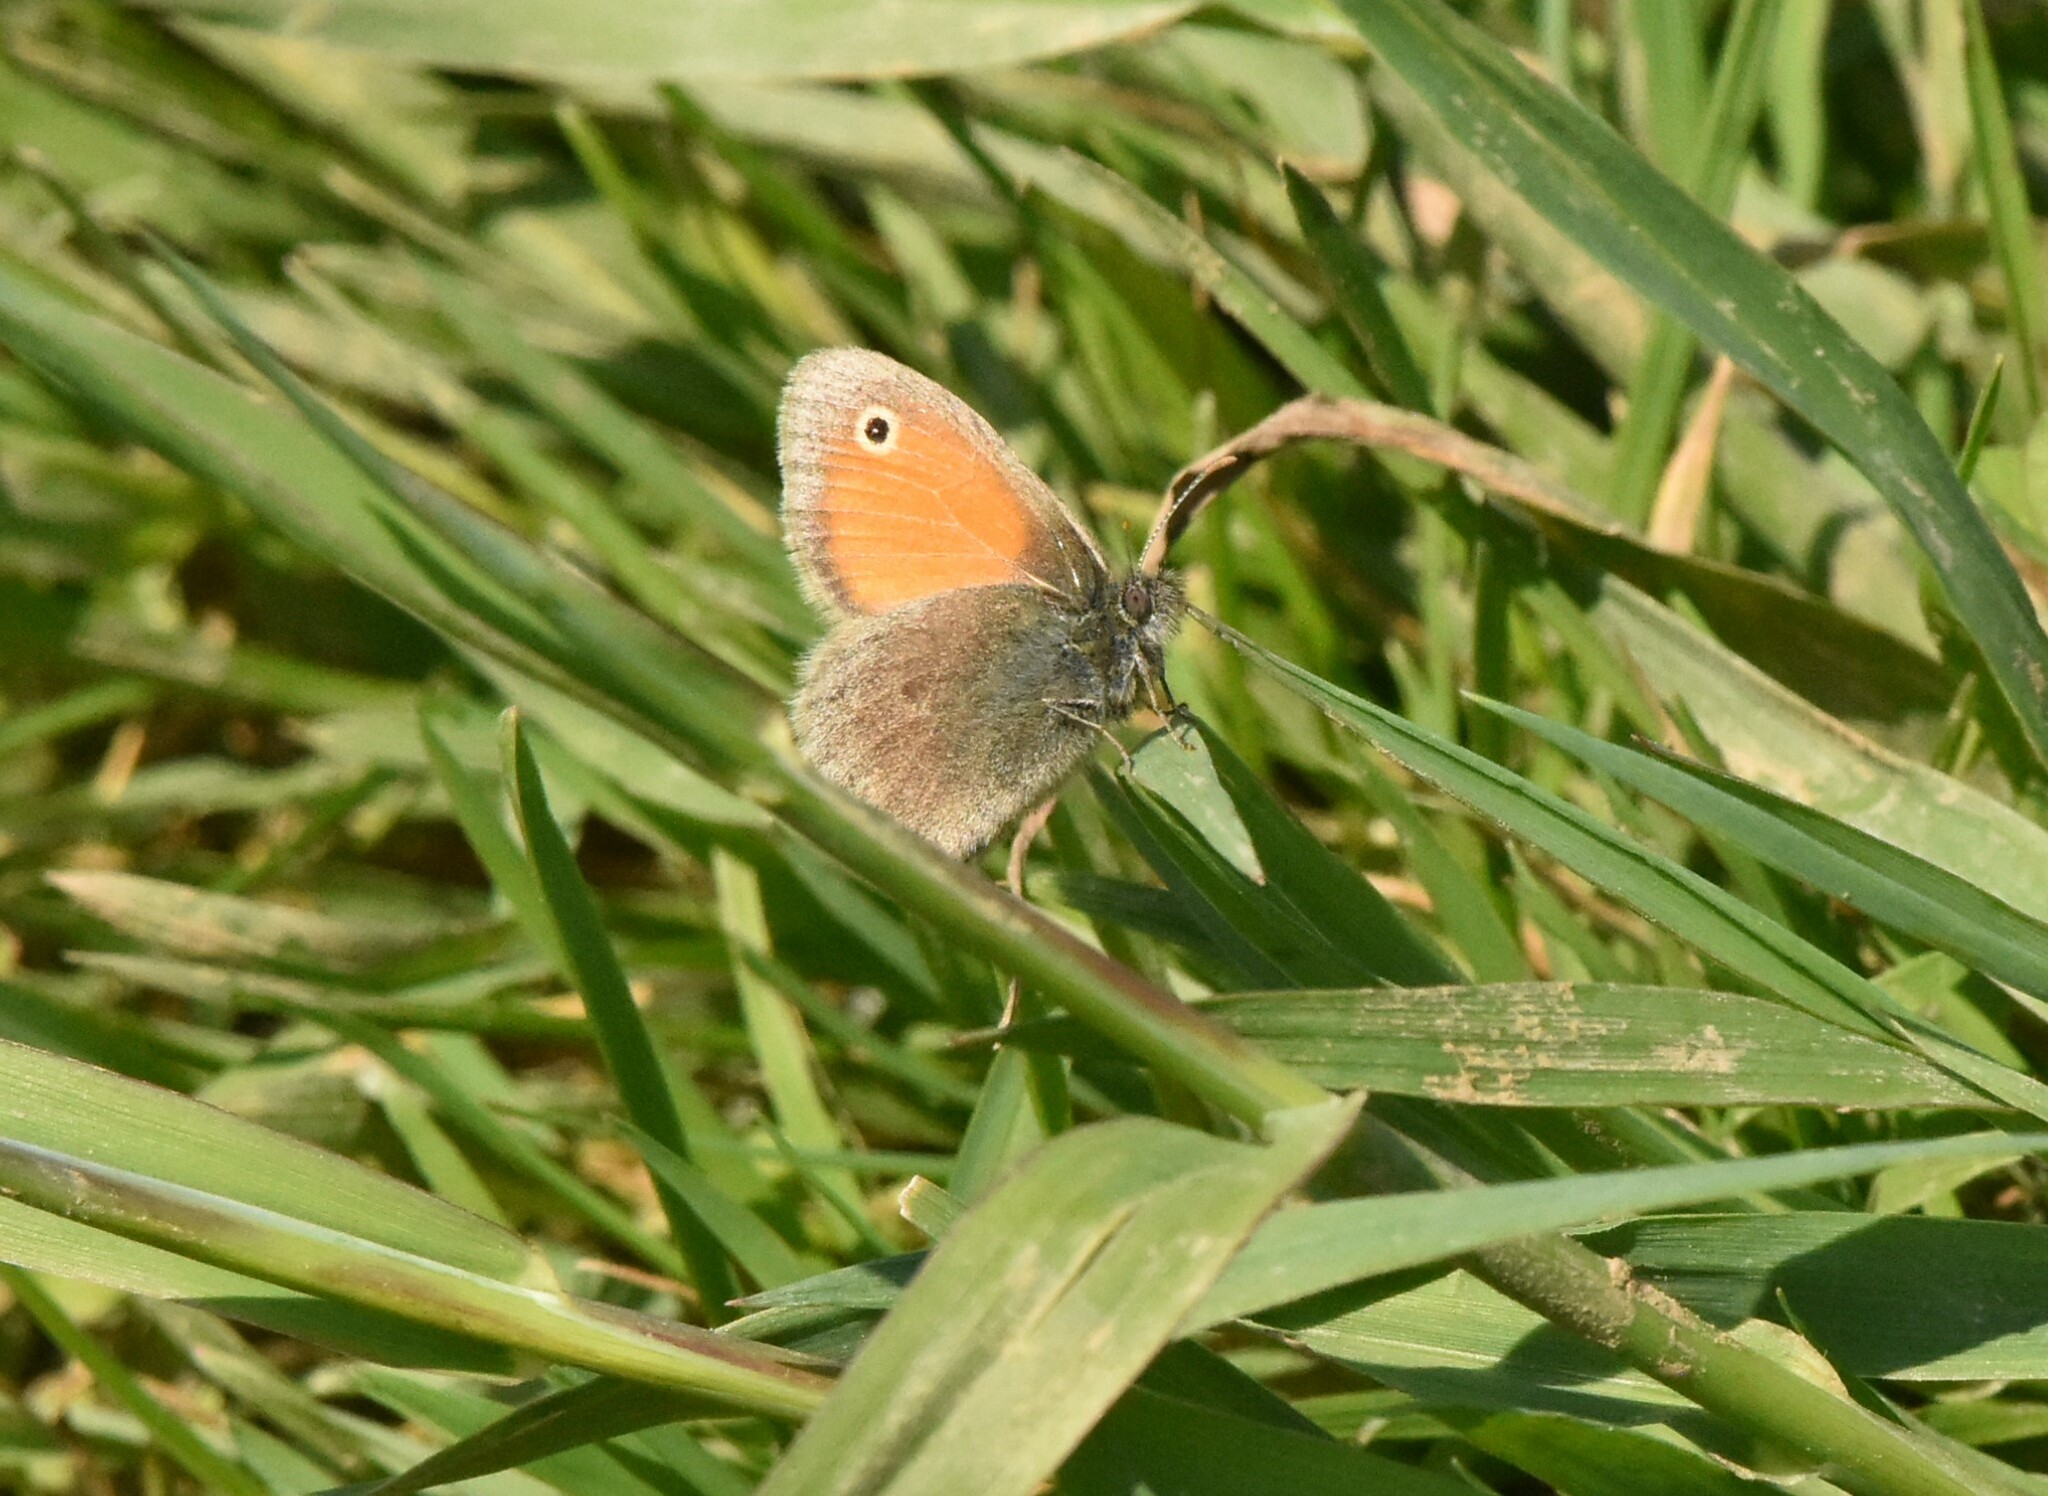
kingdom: Animalia
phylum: Arthropoda
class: Insecta
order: Lepidoptera
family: Nymphalidae
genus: Coenonympha
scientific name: Coenonympha pamphilus
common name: Small heath
